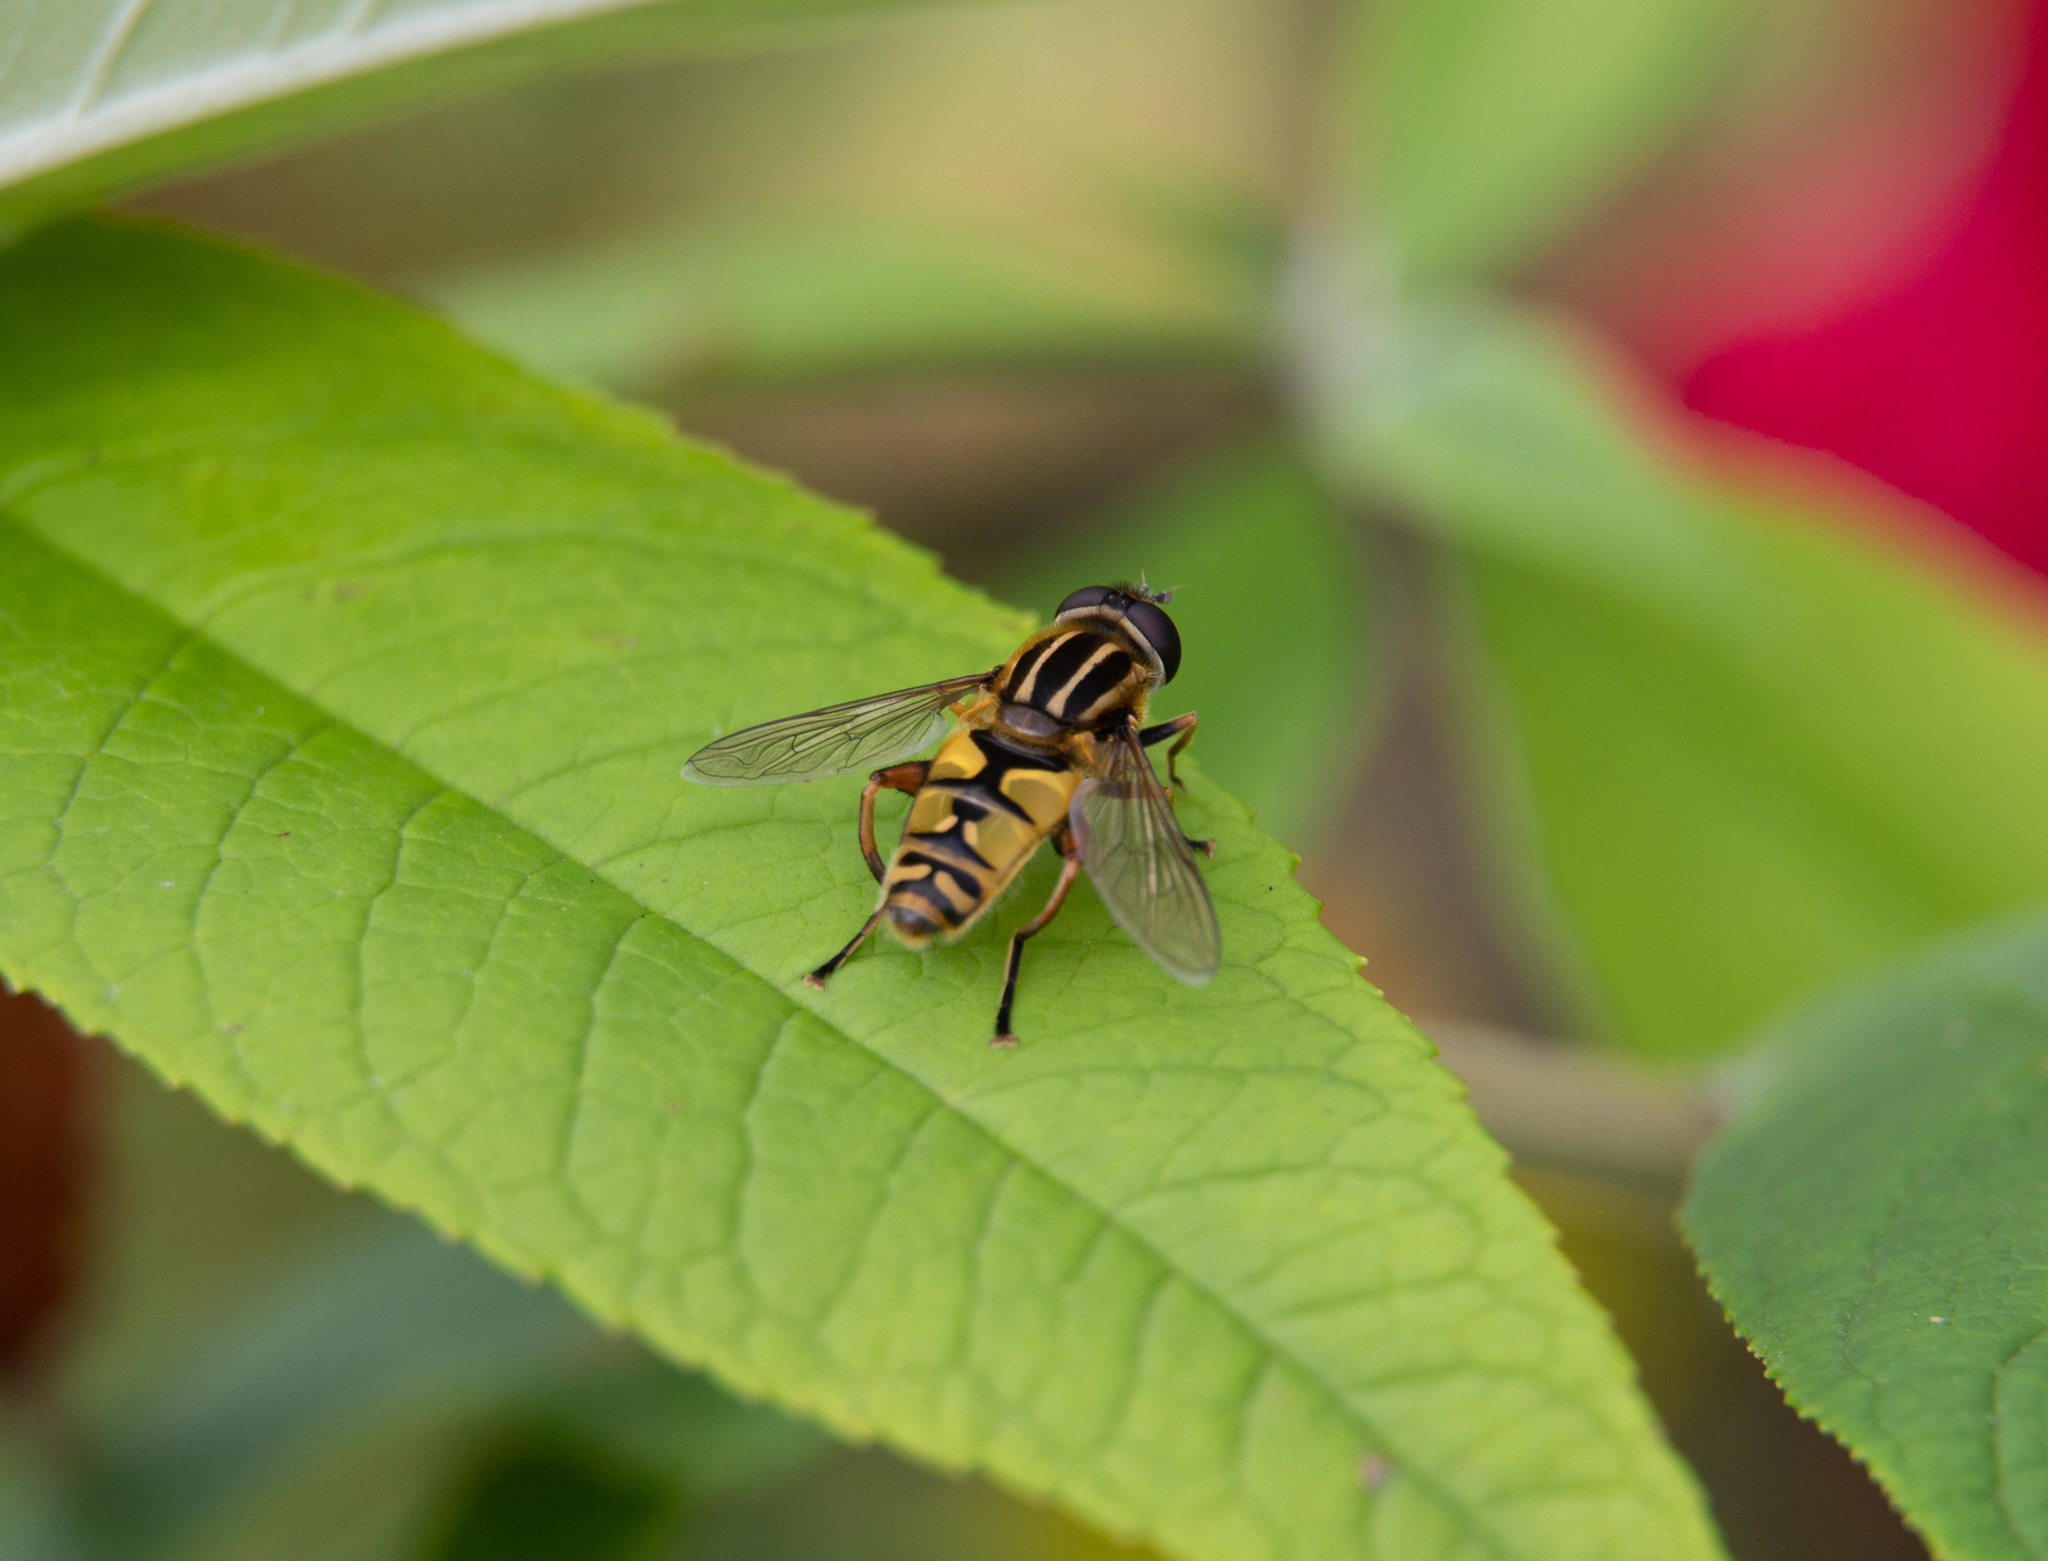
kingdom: Animalia
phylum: Arthropoda
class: Insecta
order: Diptera
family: Syrphidae
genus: Helophilus
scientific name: Helophilus pendulus
